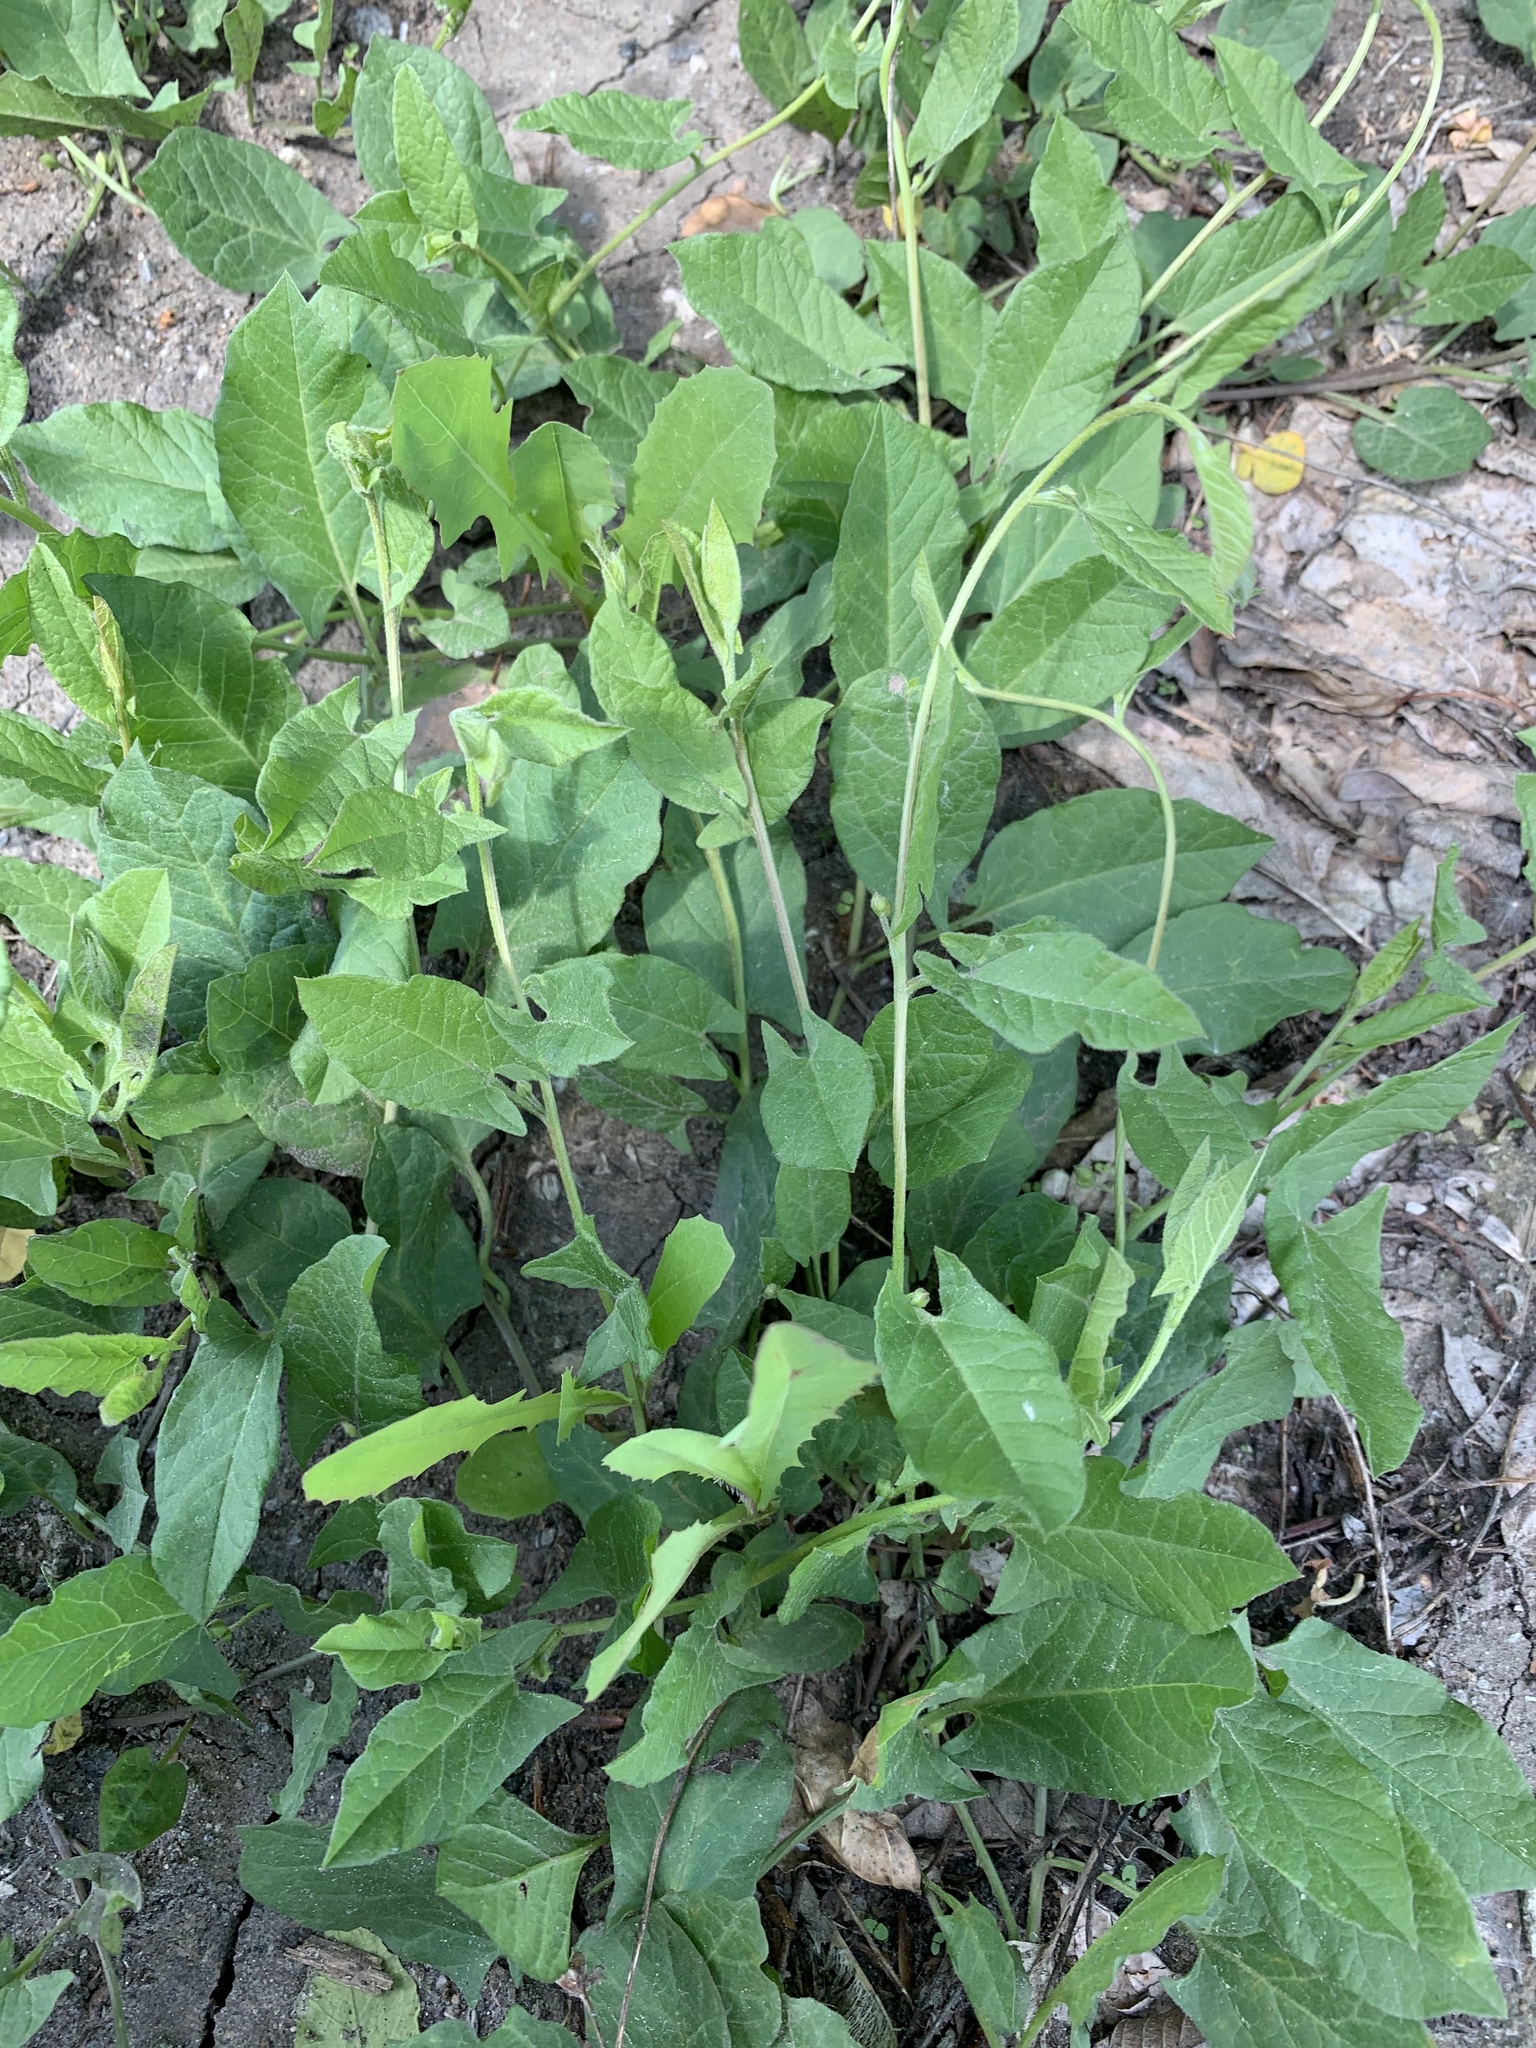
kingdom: Plantae
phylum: Tracheophyta
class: Magnoliopsida
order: Solanales
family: Convolvulaceae
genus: Convolvulus
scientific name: Convolvulus arvensis
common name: Field bindweed
